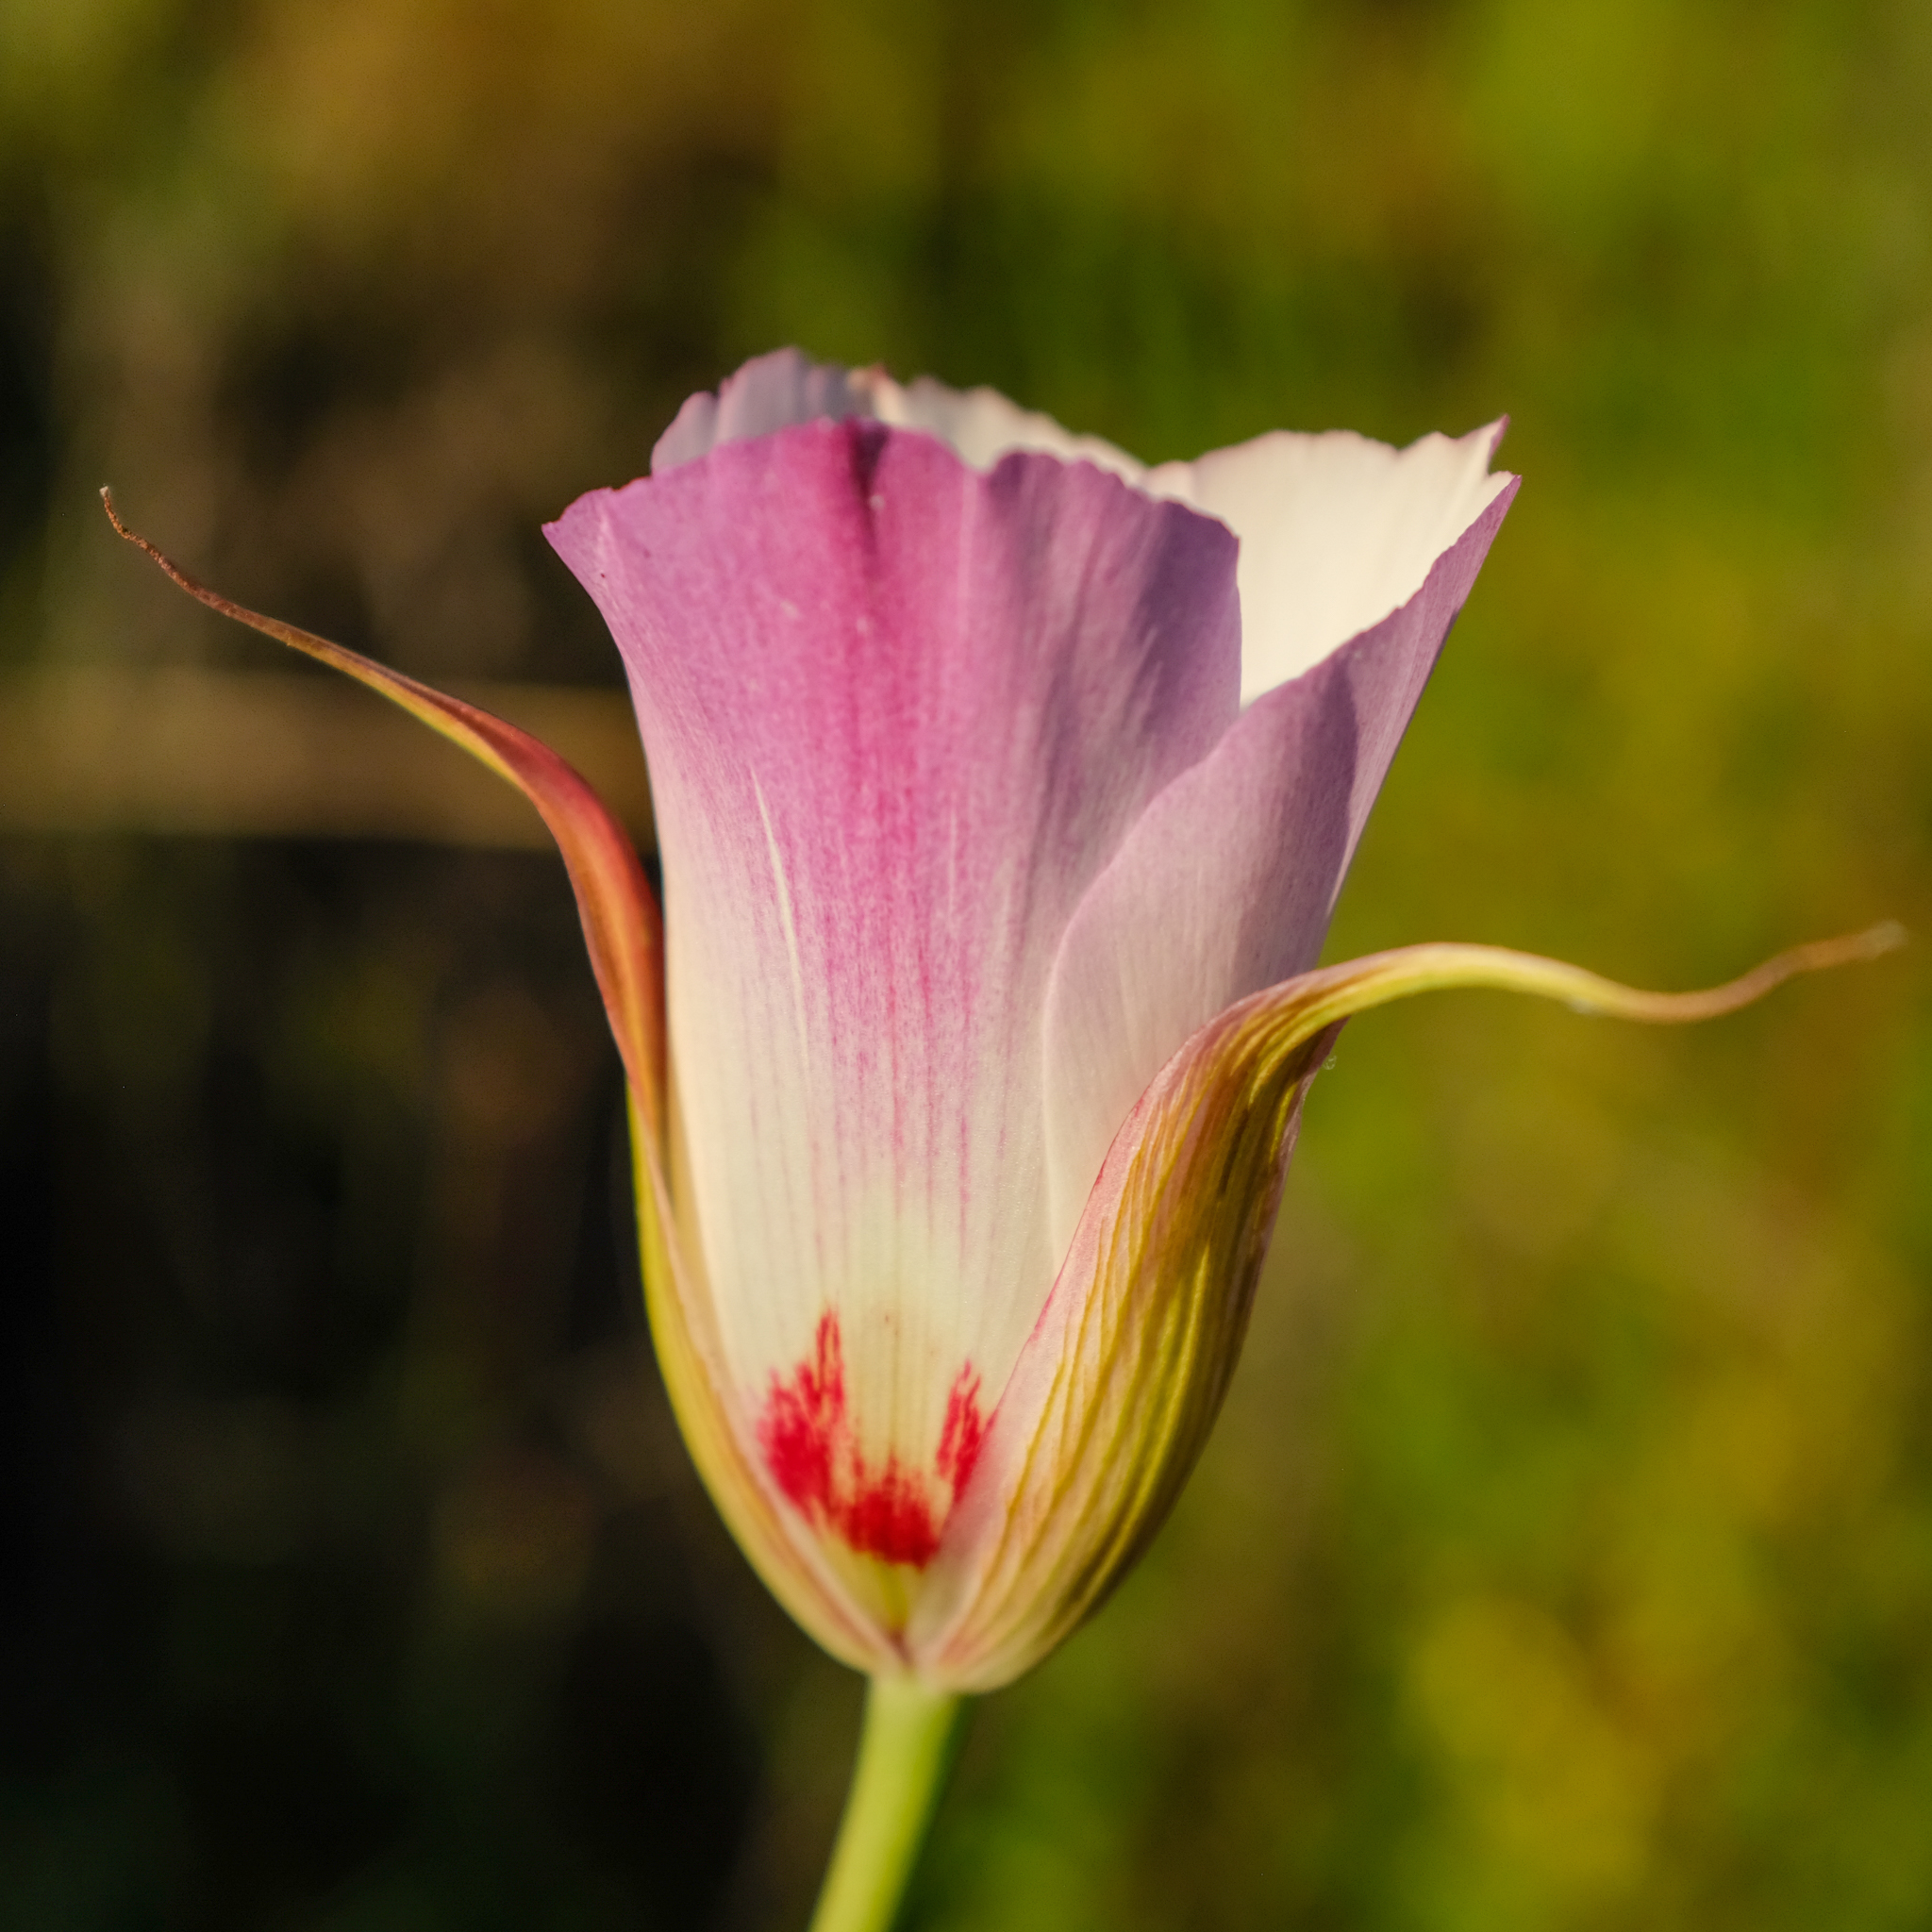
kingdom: Plantae
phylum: Tracheophyta
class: Liliopsida
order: Liliales
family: Liliaceae
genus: Calochortus
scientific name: Calochortus simulans
